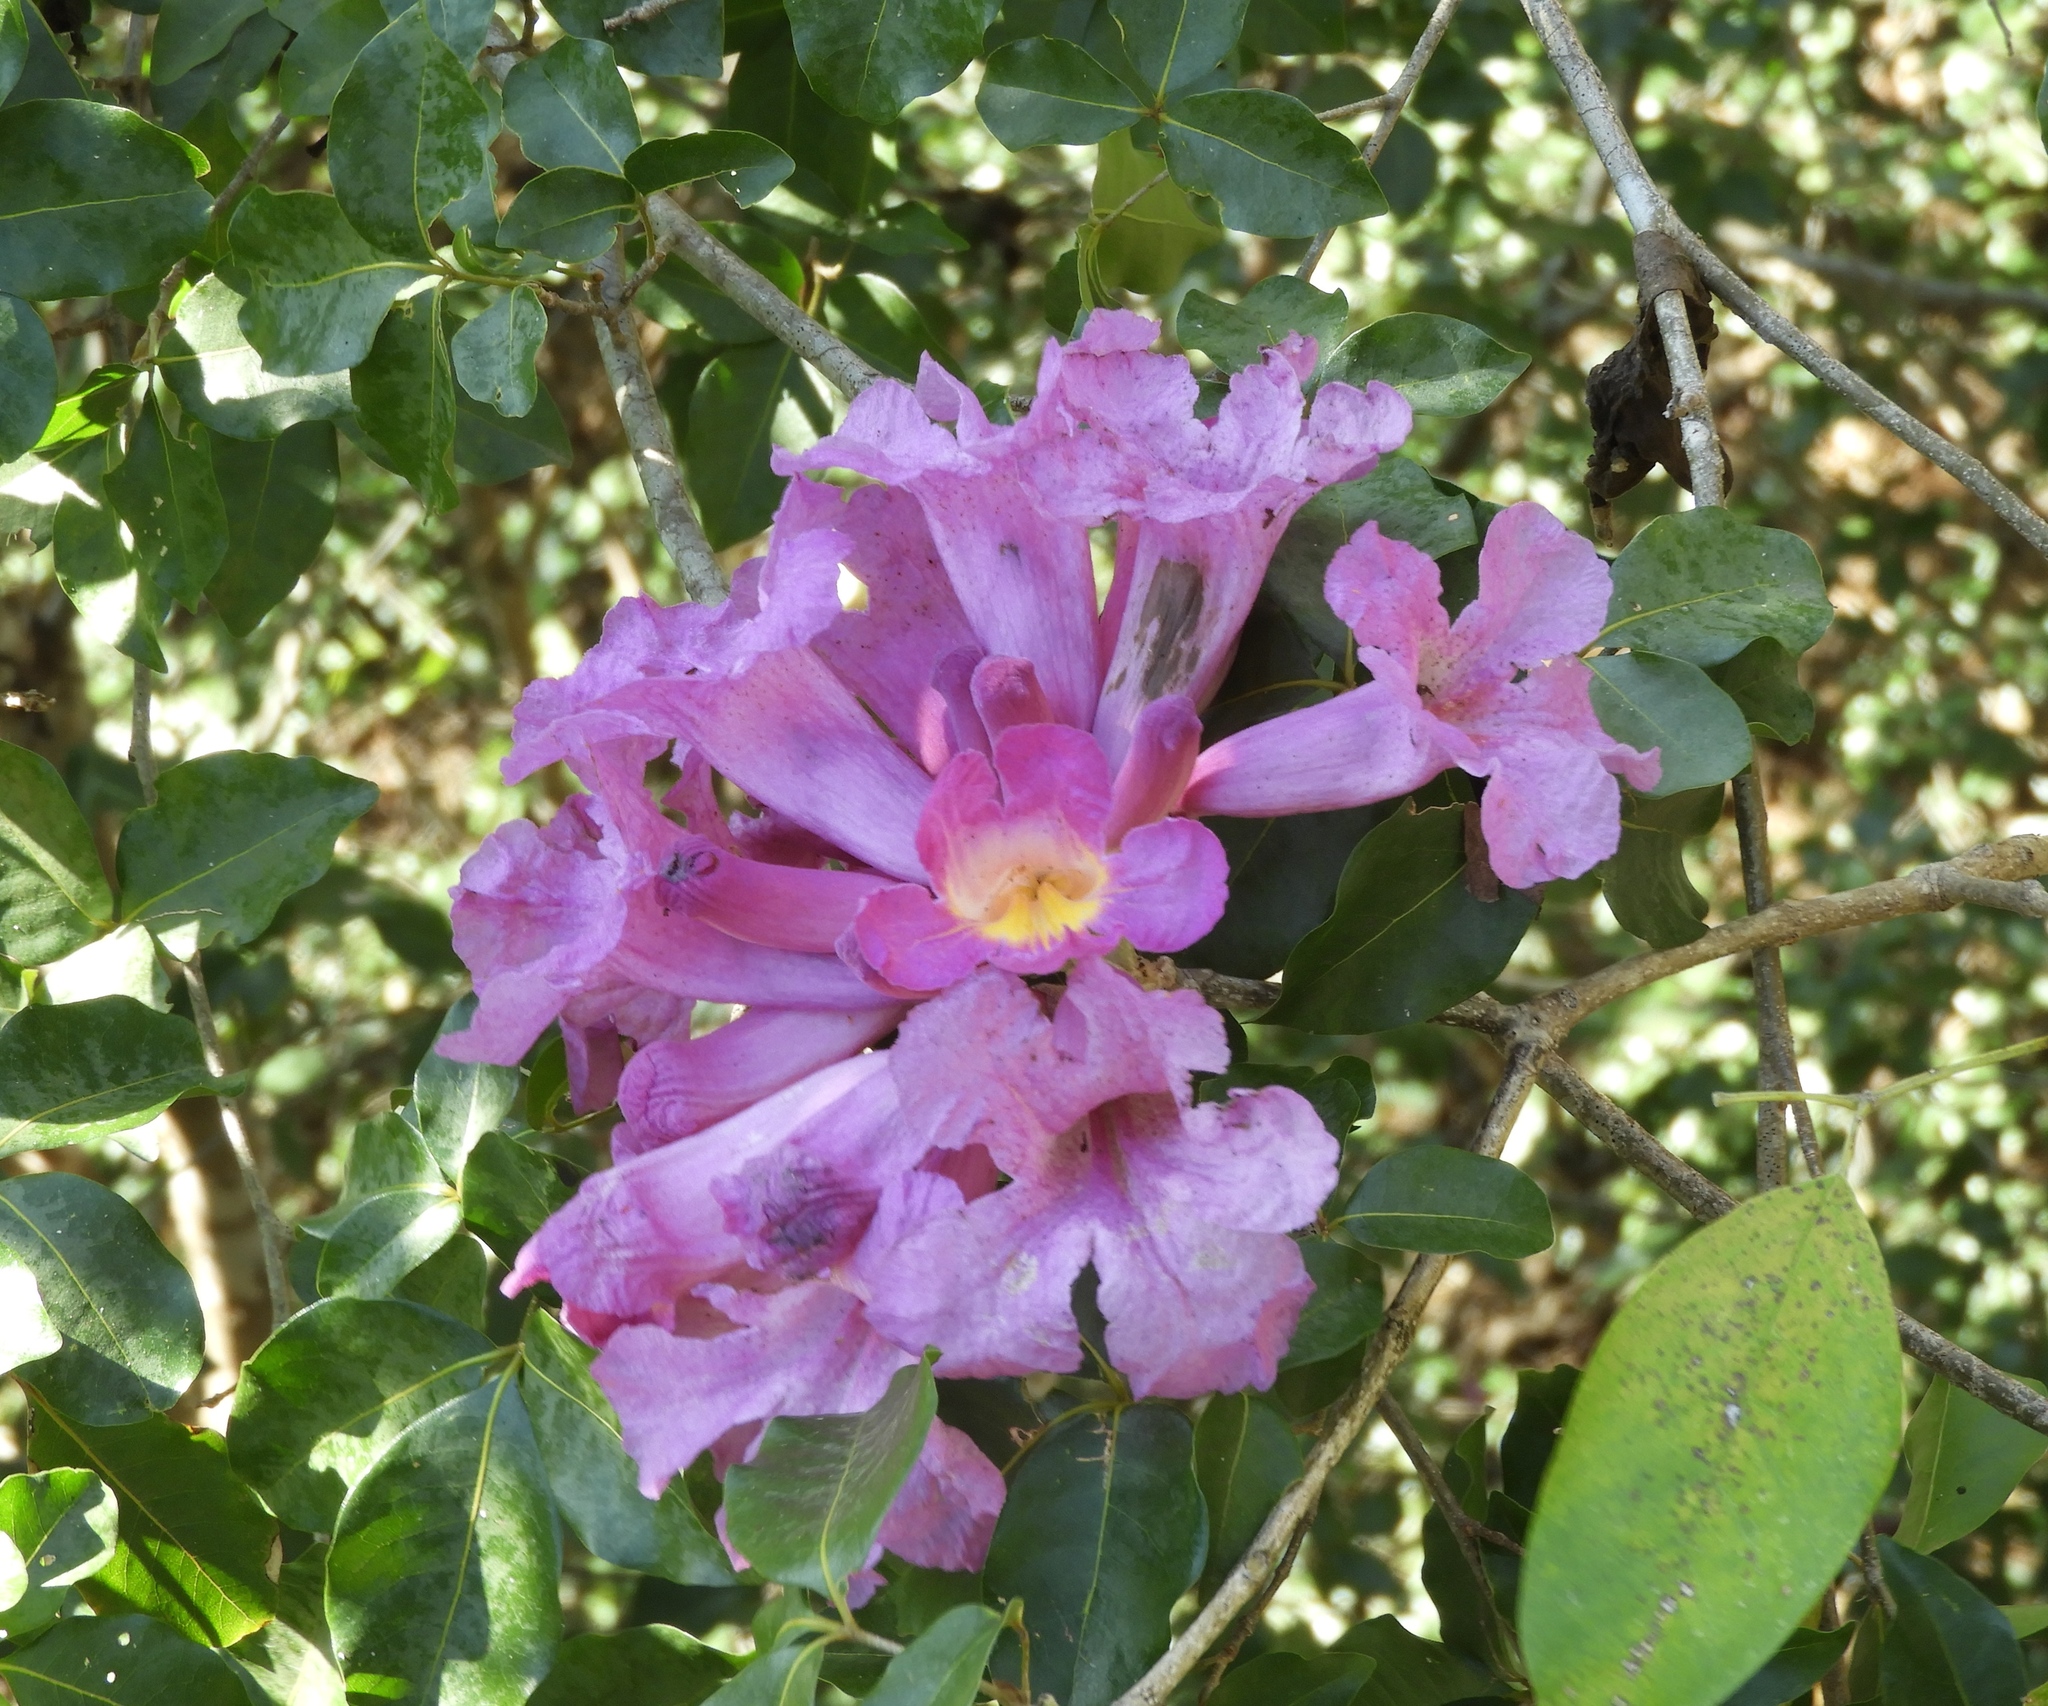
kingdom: Plantae
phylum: Tracheophyta
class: Magnoliopsida
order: Lamiales
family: Bignoniaceae
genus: Handroanthus
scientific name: Handroanthus impetiginosum
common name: Pink trumpet tree
